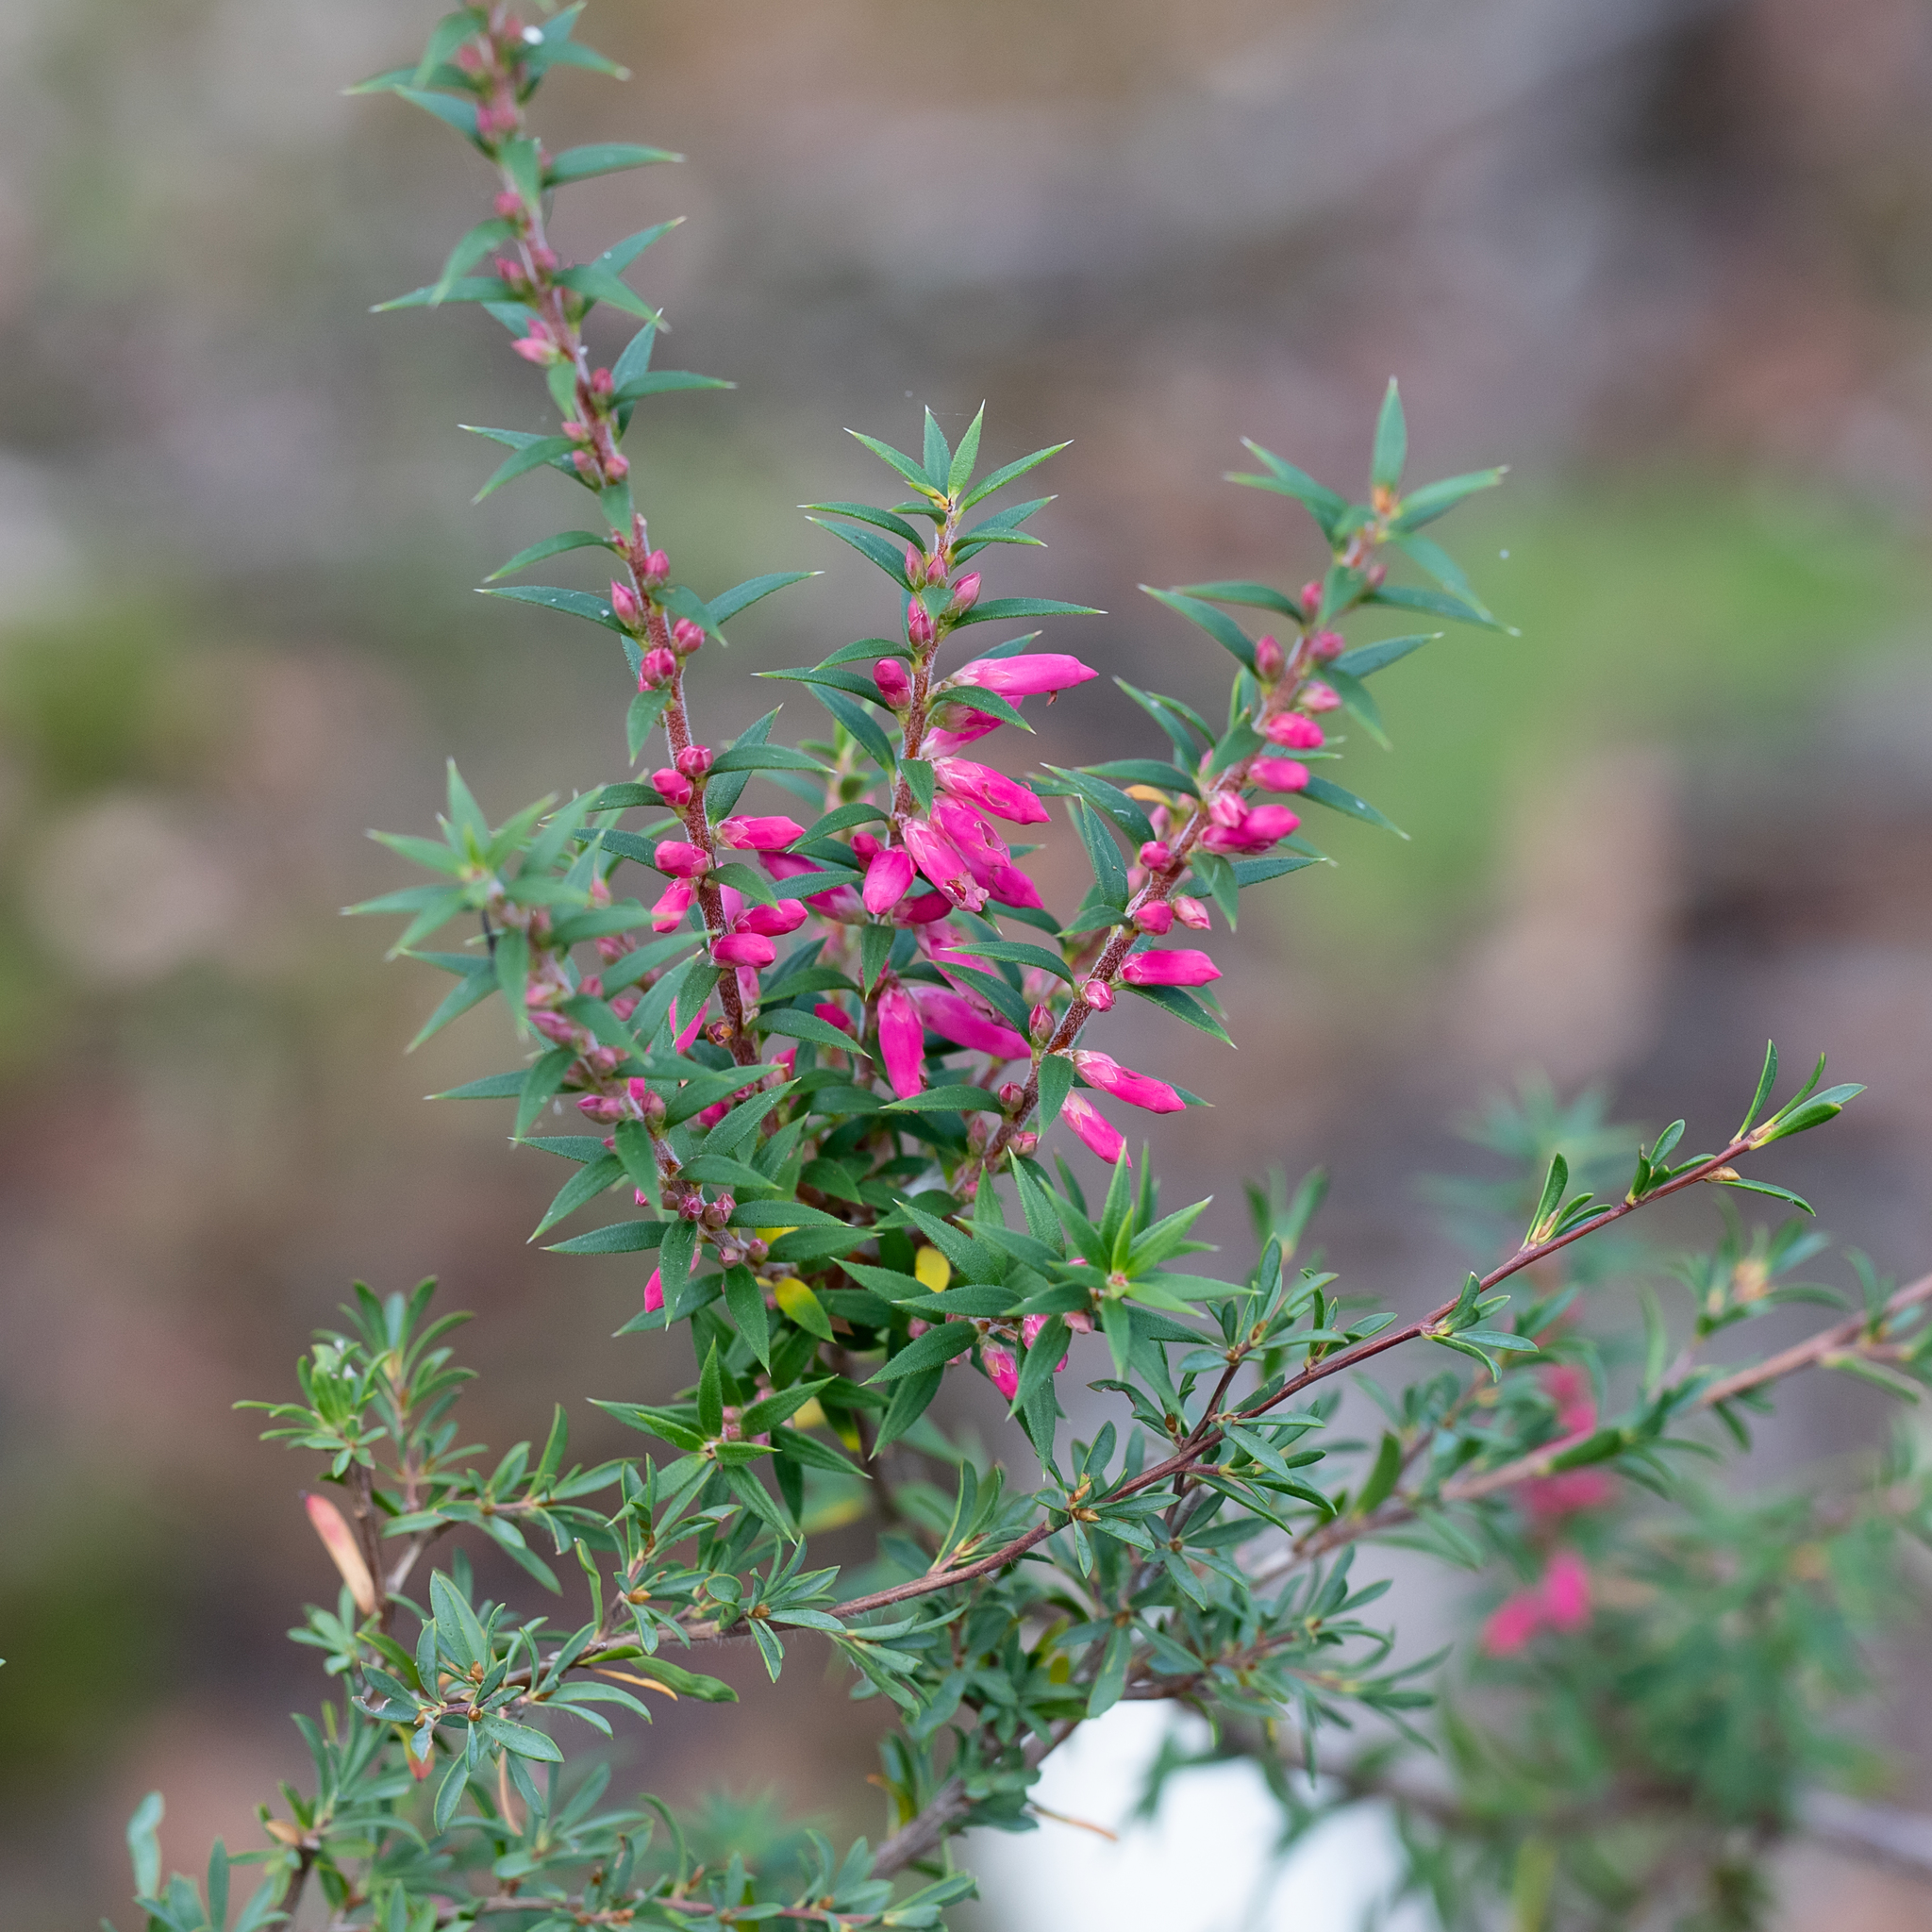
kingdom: Plantae
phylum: Tracheophyta
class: Magnoliopsida
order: Ericales
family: Ericaceae
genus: Epacris
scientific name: Epacris impressa
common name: Common-heath
